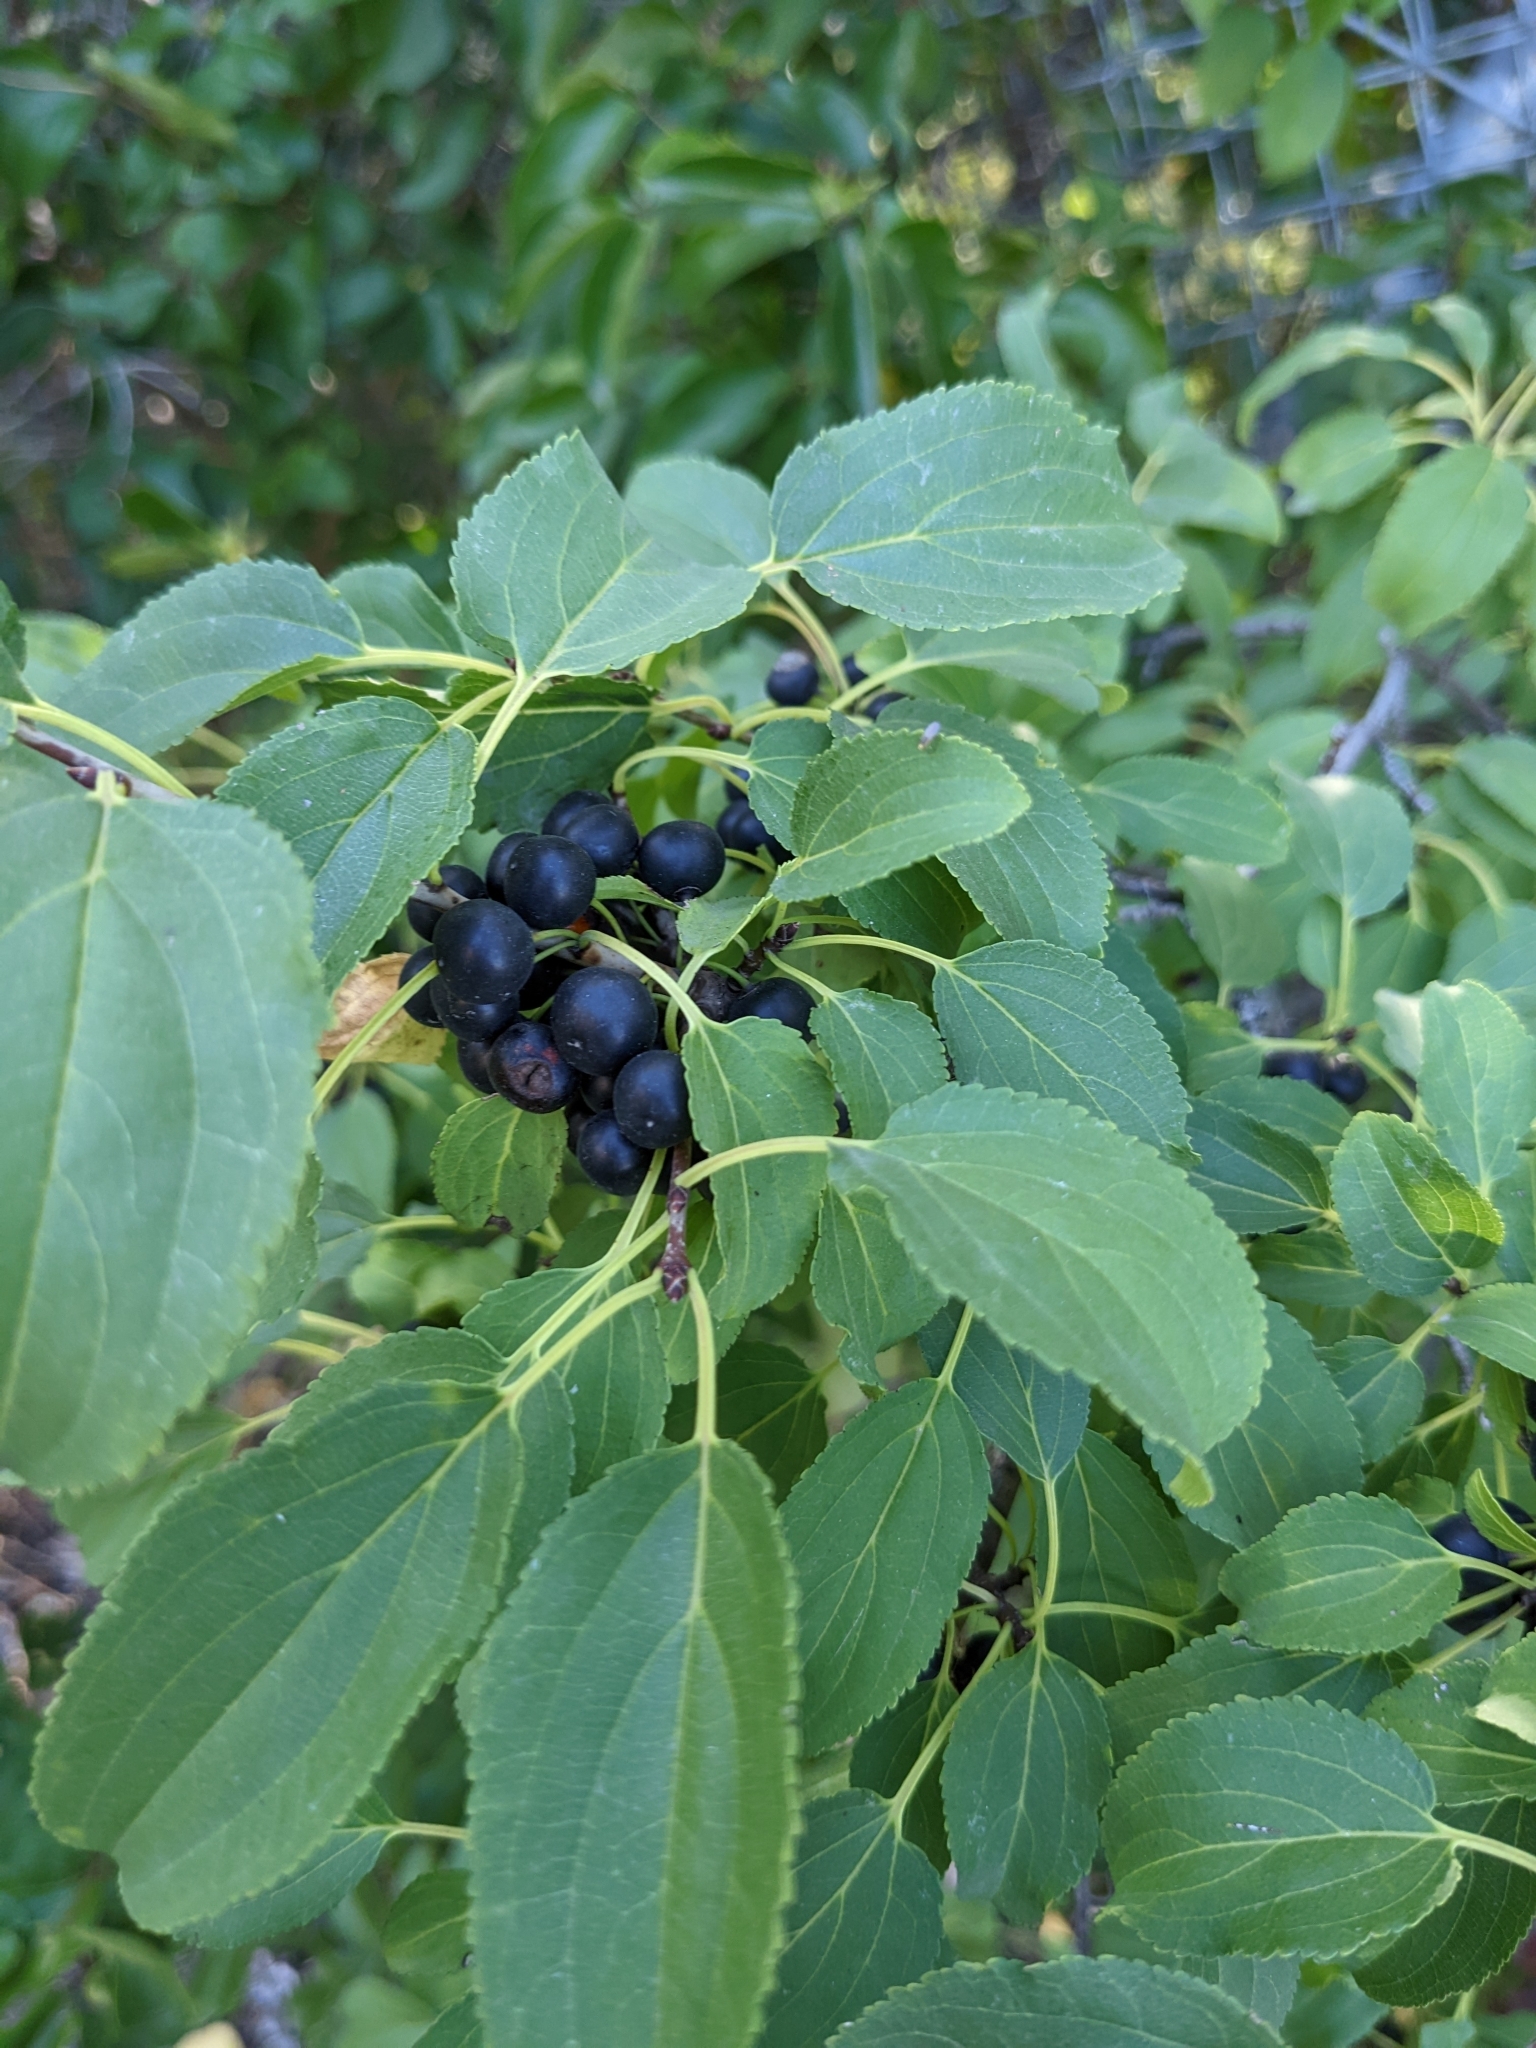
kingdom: Plantae
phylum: Tracheophyta
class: Magnoliopsida
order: Rosales
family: Rhamnaceae
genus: Rhamnus
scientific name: Rhamnus cathartica
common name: Common buckthorn
